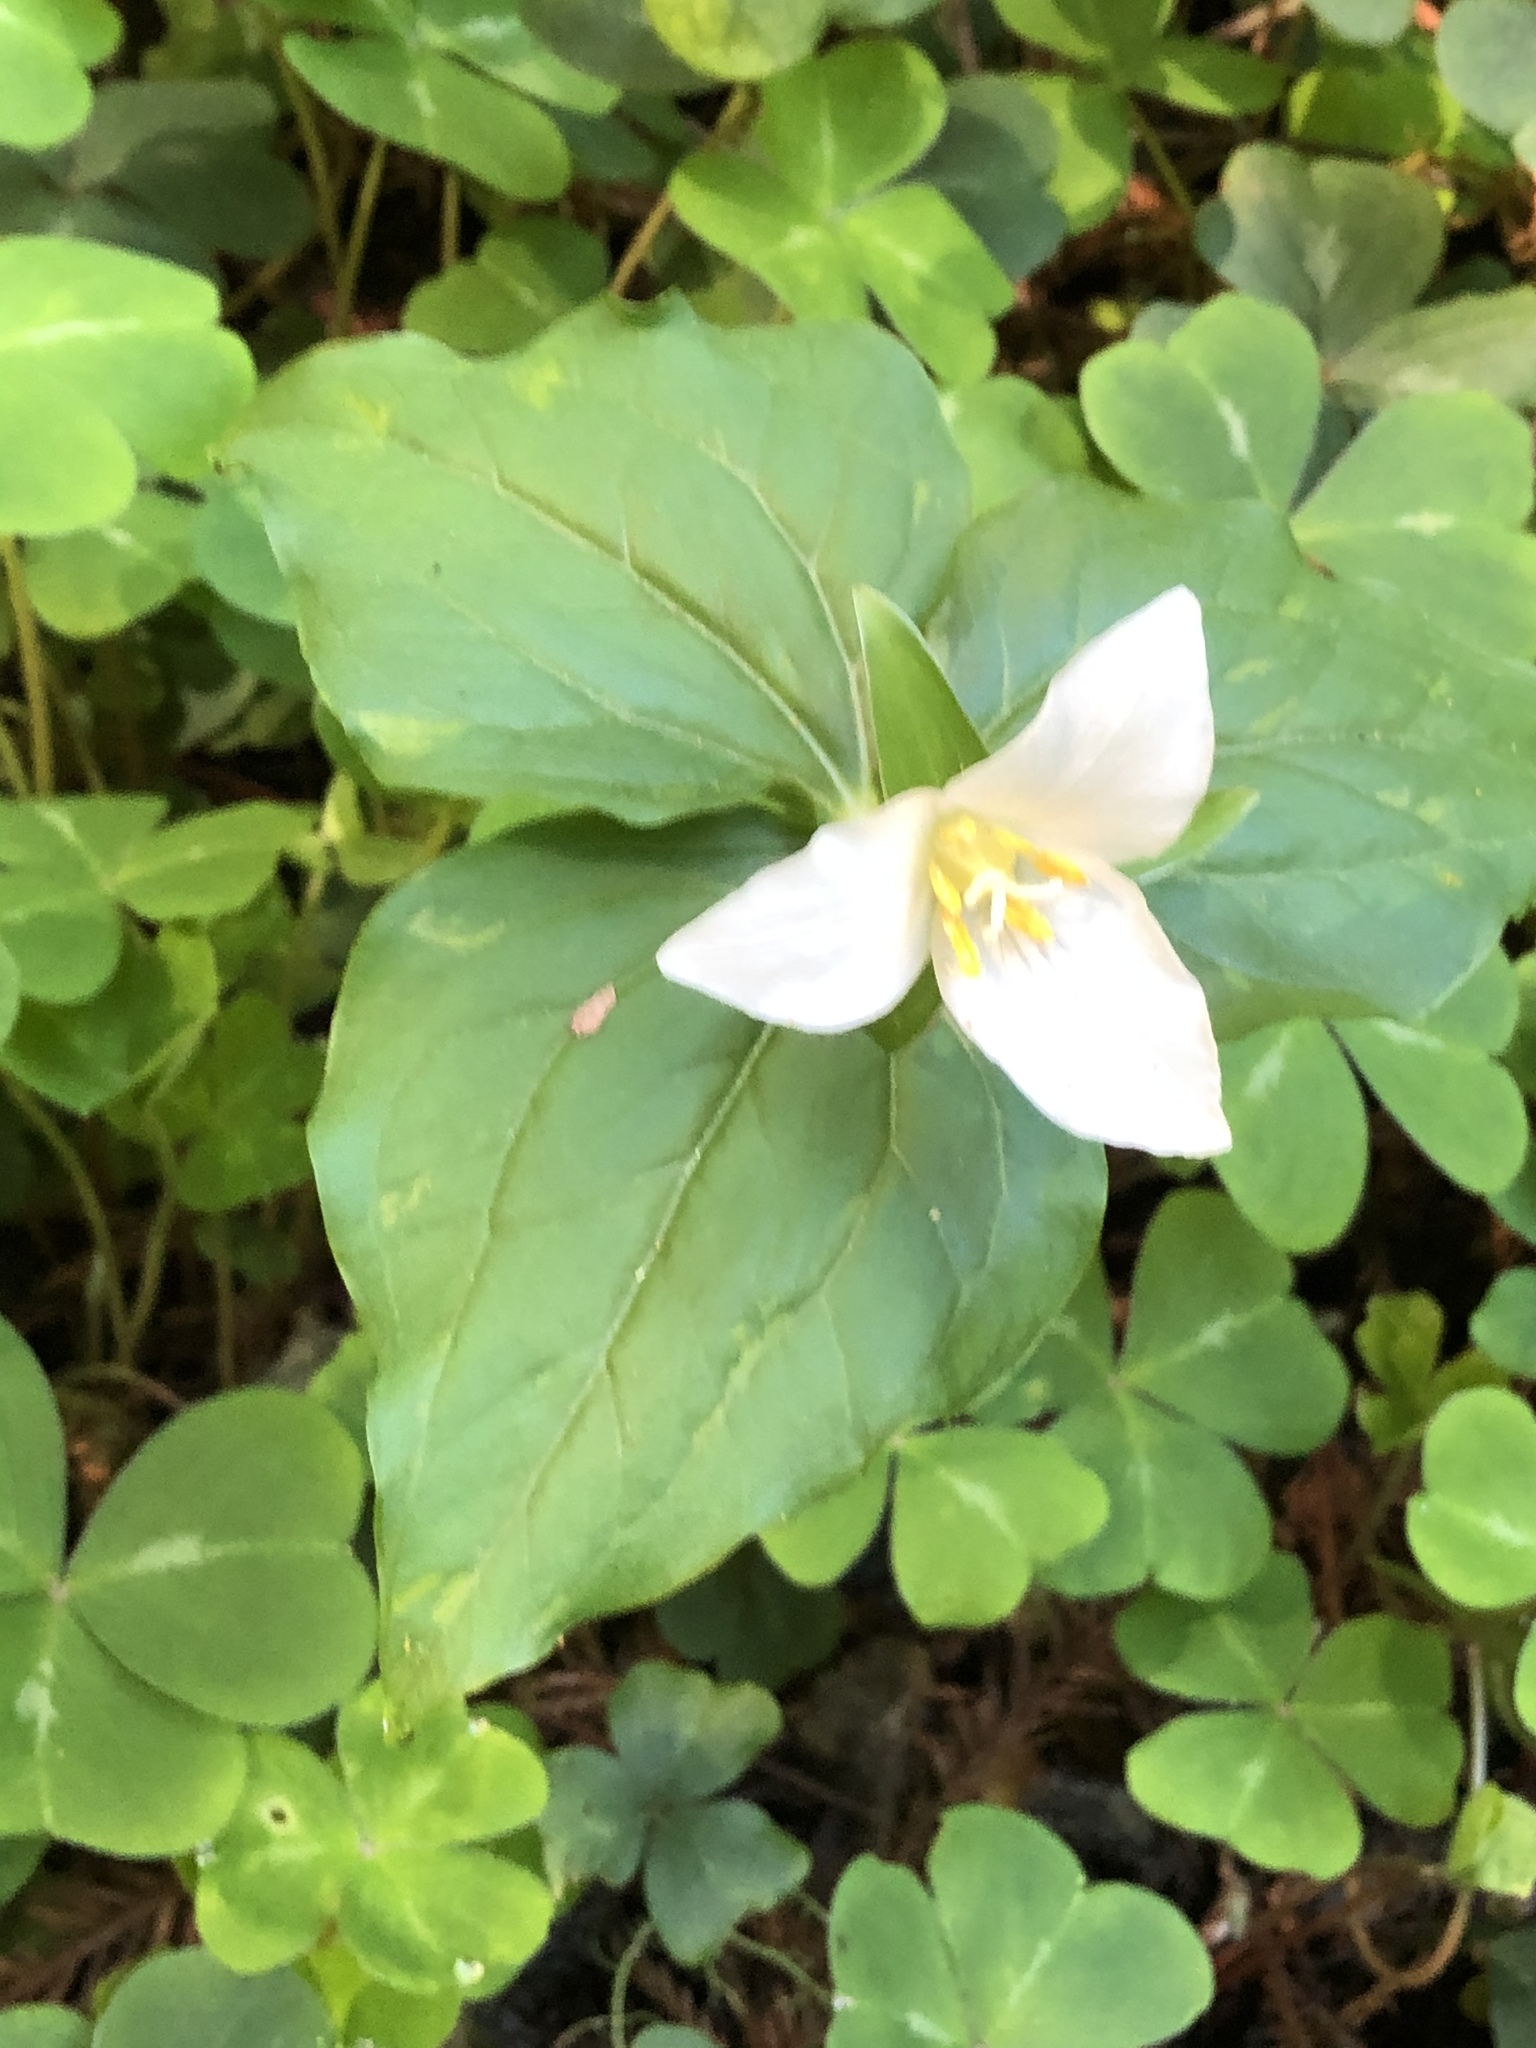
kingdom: Plantae
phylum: Tracheophyta
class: Liliopsida
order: Liliales
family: Melanthiaceae
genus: Trillium
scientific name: Trillium ovatum
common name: Pacific trillium
